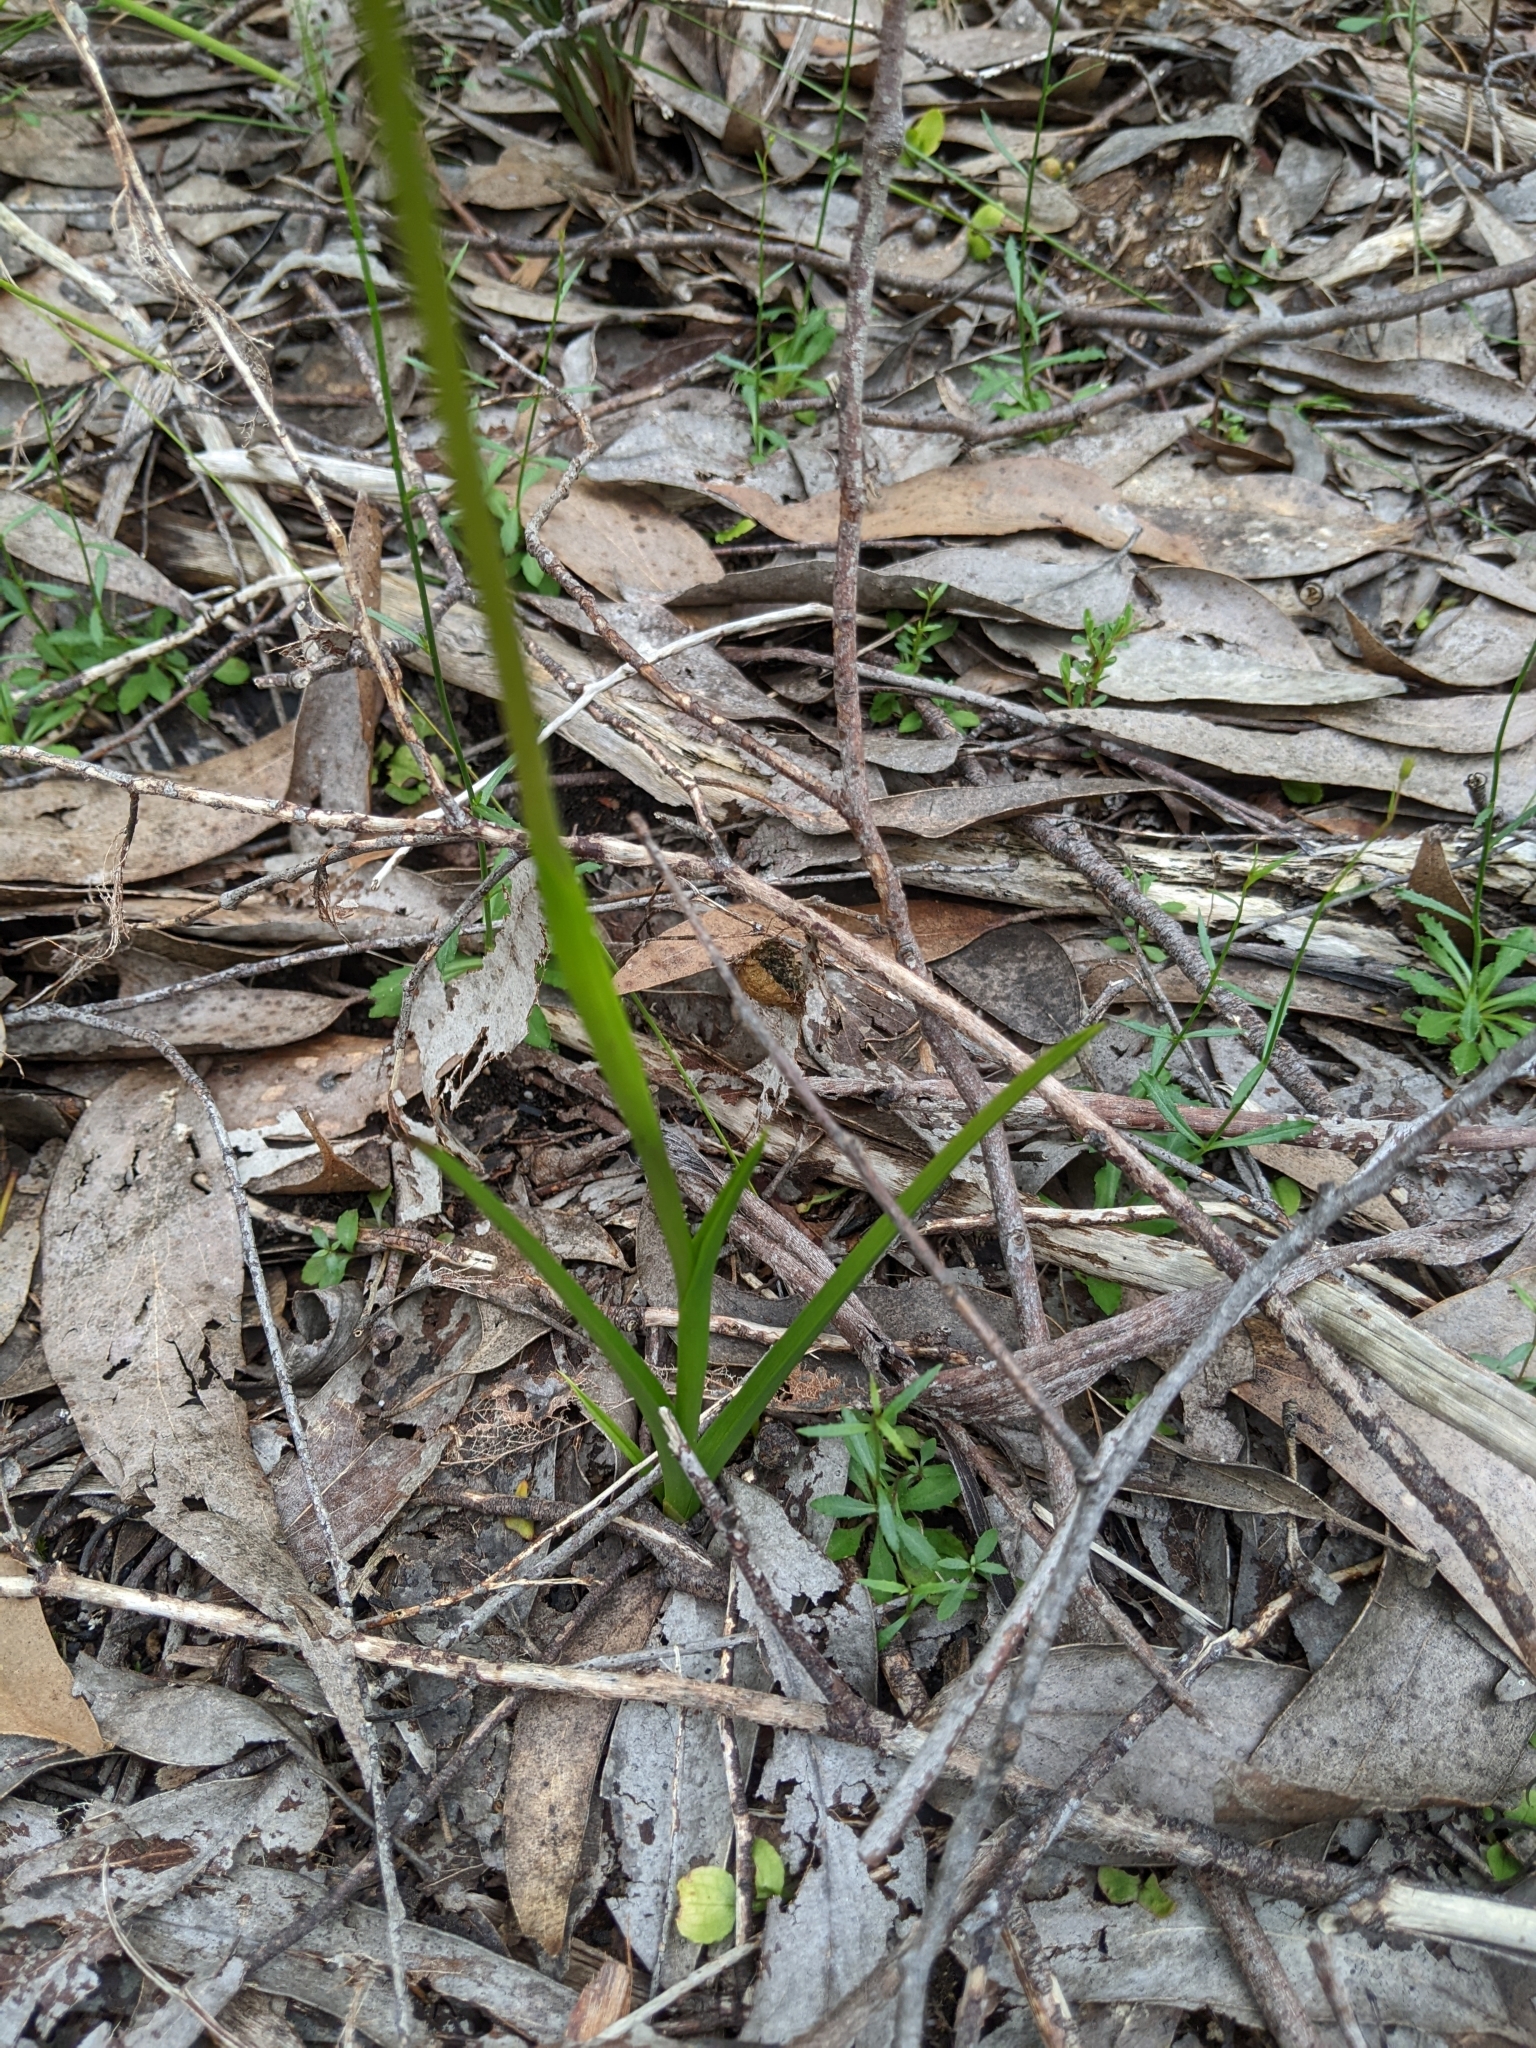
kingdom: Plantae
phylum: Tracheophyta
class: Liliopsida
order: Asparagales
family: Orchidaceae
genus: Diuris
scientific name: Diuris orientis
